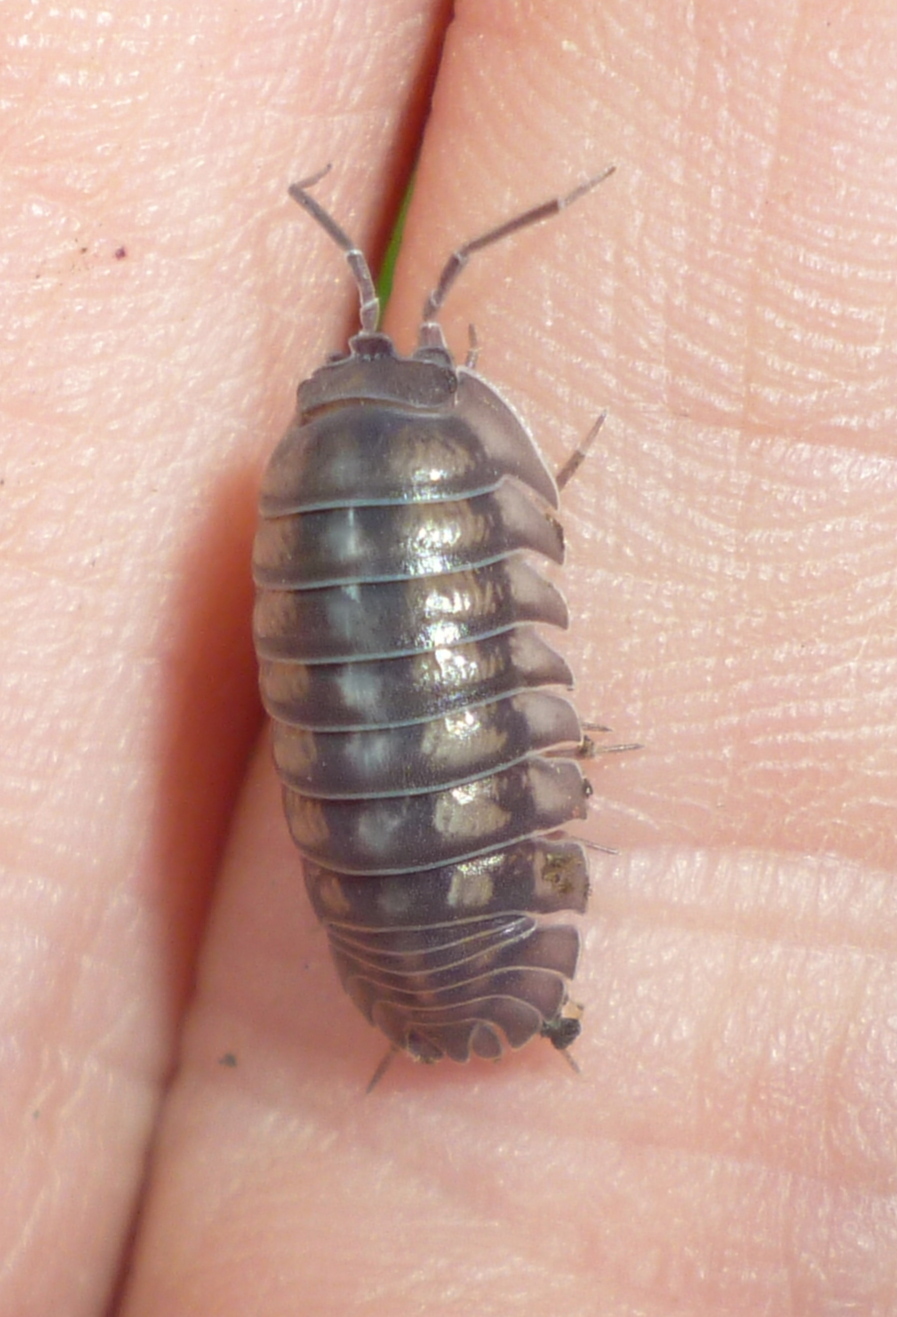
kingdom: Animalia
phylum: Arthropoda
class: Malacostraca
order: Isopoda
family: Armadillidiidae
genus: Armadillidium
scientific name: Armadillidium nasatum
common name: Isopod
